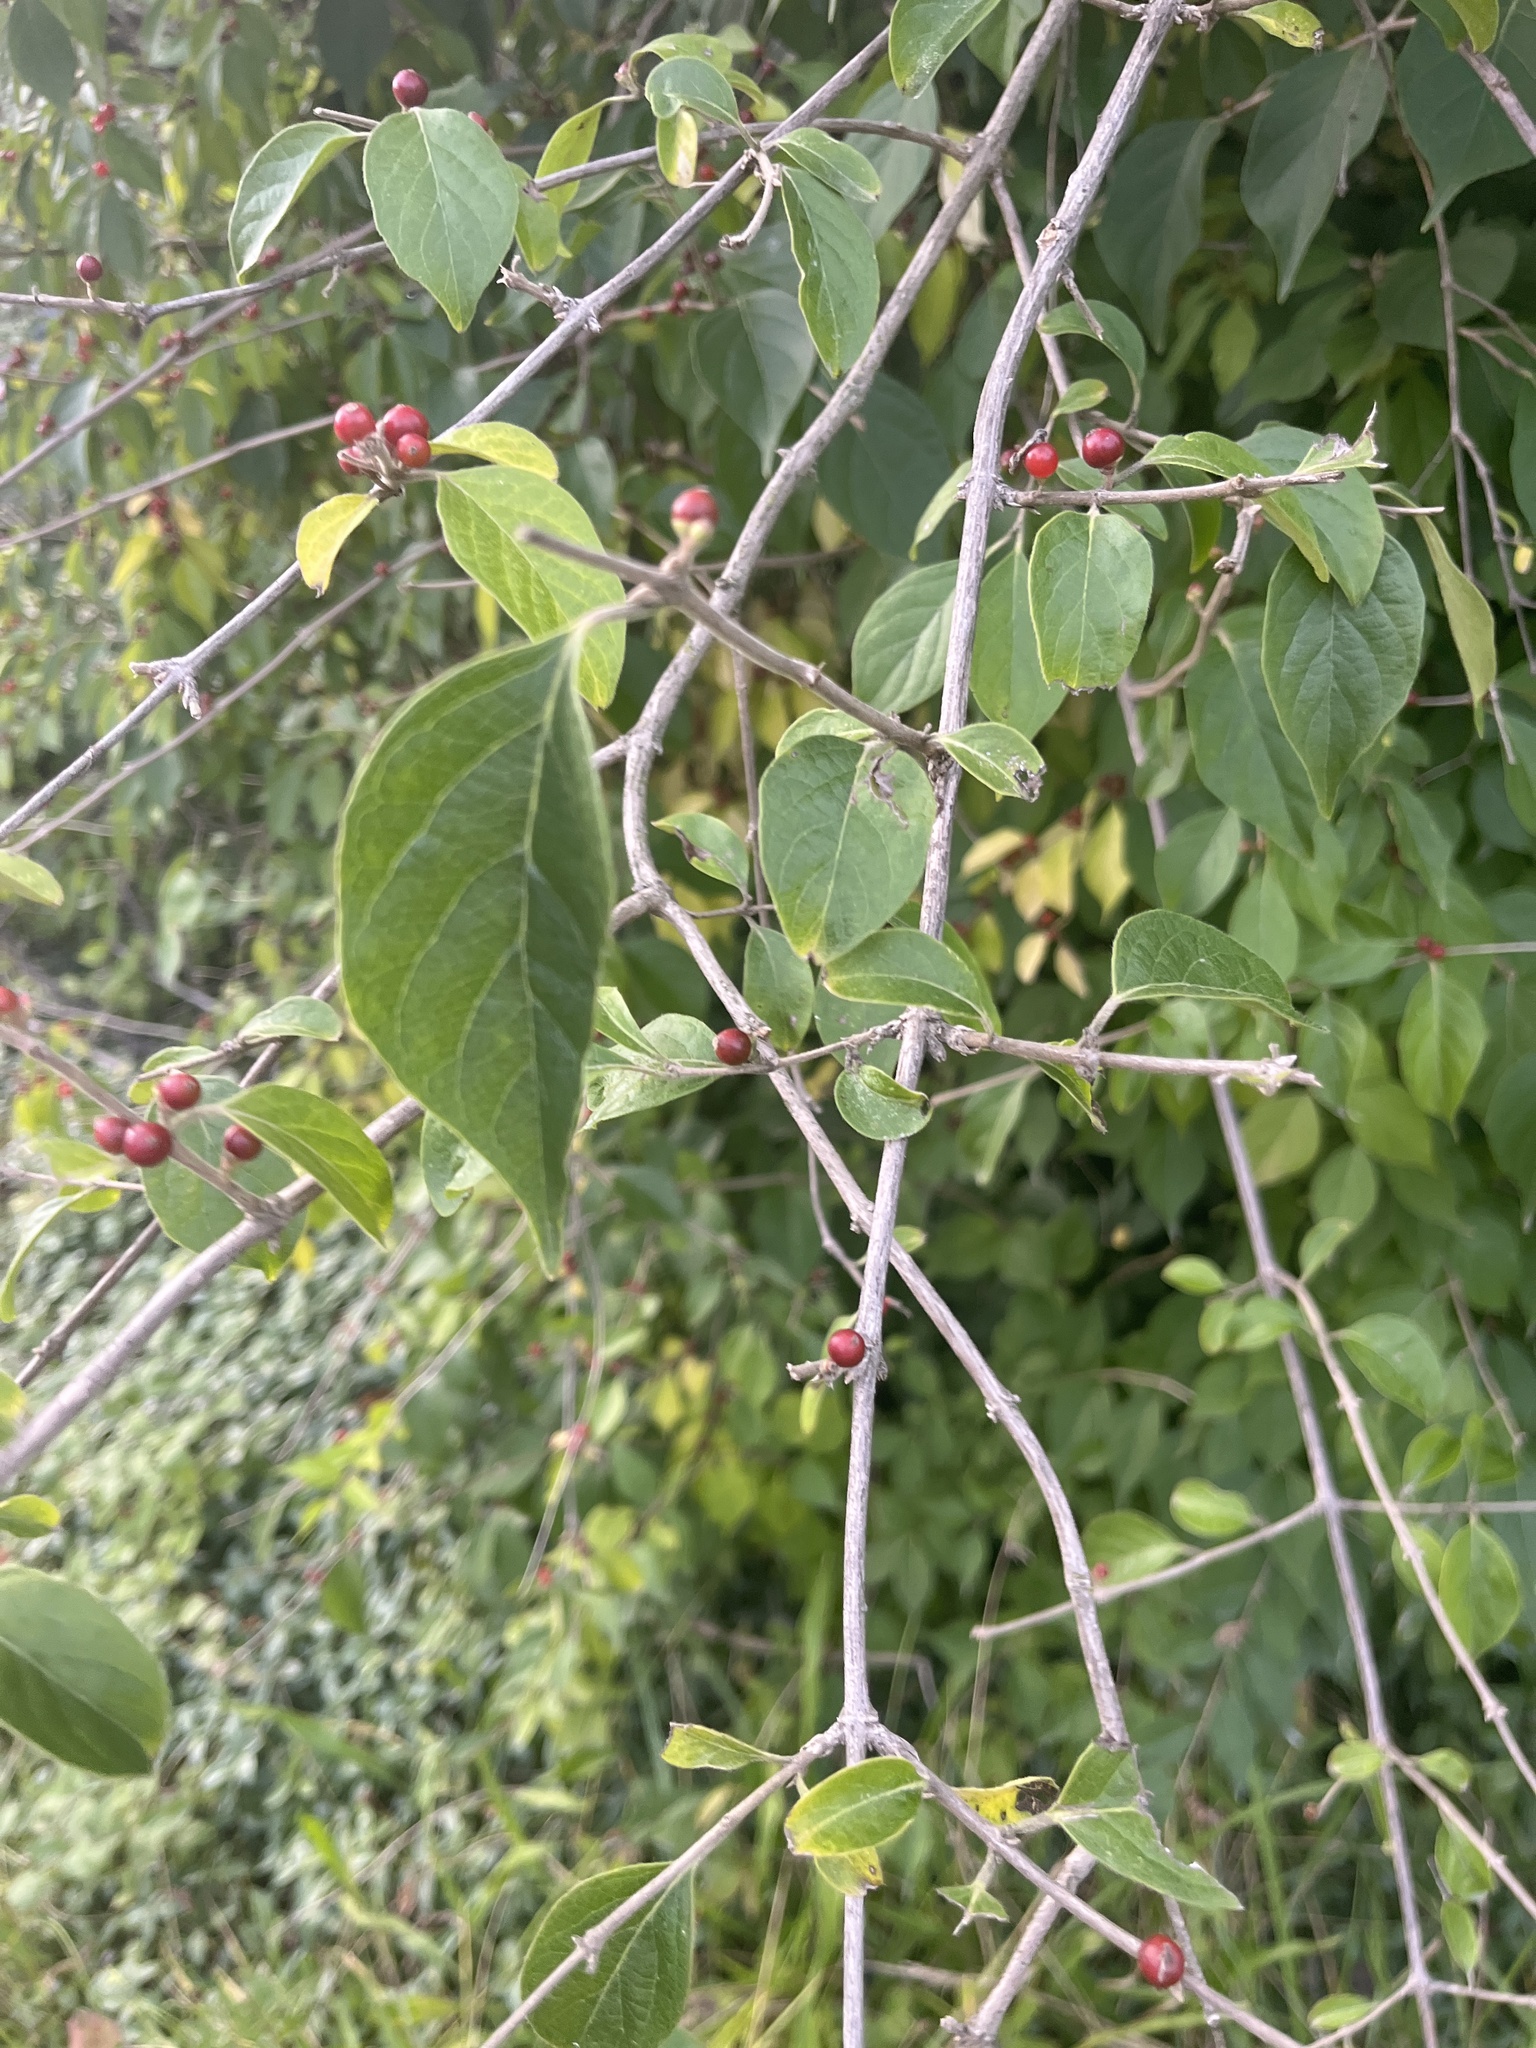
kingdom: Plantae
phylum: Tracheophyta
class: Magnoliopsida
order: Dipsacales
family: Caprifoliaceae
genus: Lonicera
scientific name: Lonicera maackii
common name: Amur honeysuckle
